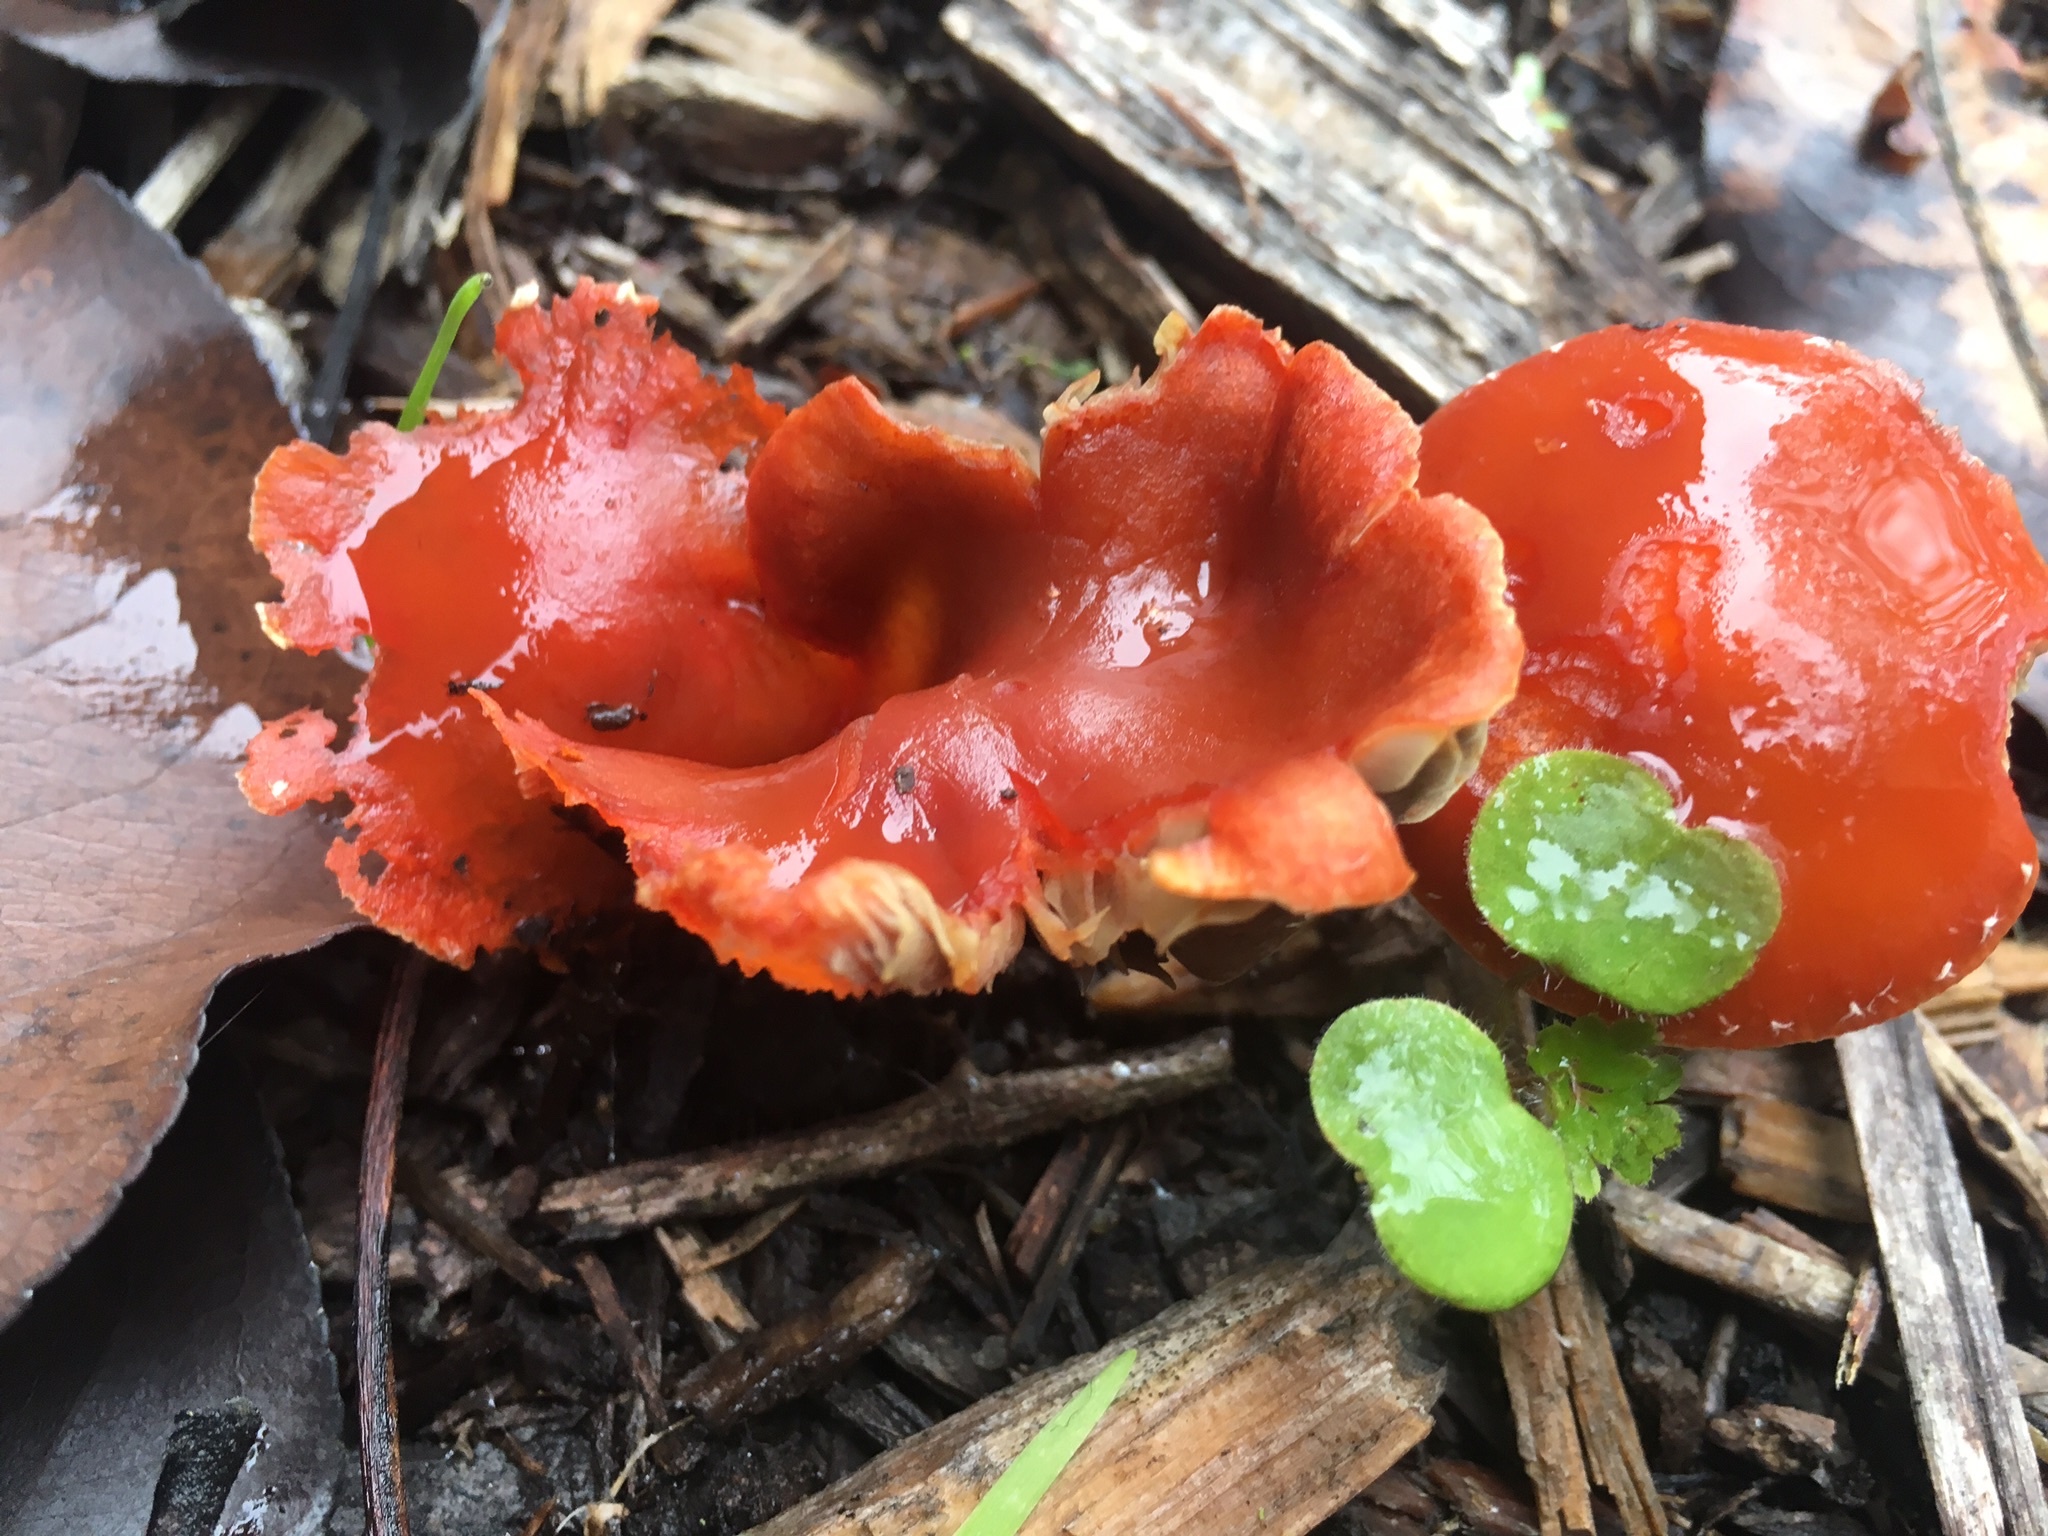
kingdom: Fungi
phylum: Basidiomycota
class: Agaricomycetes
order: Agaricales
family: Strophariaceae
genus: Leratiomyces
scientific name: Leratiomyces ceres
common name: Redlead roundhead
